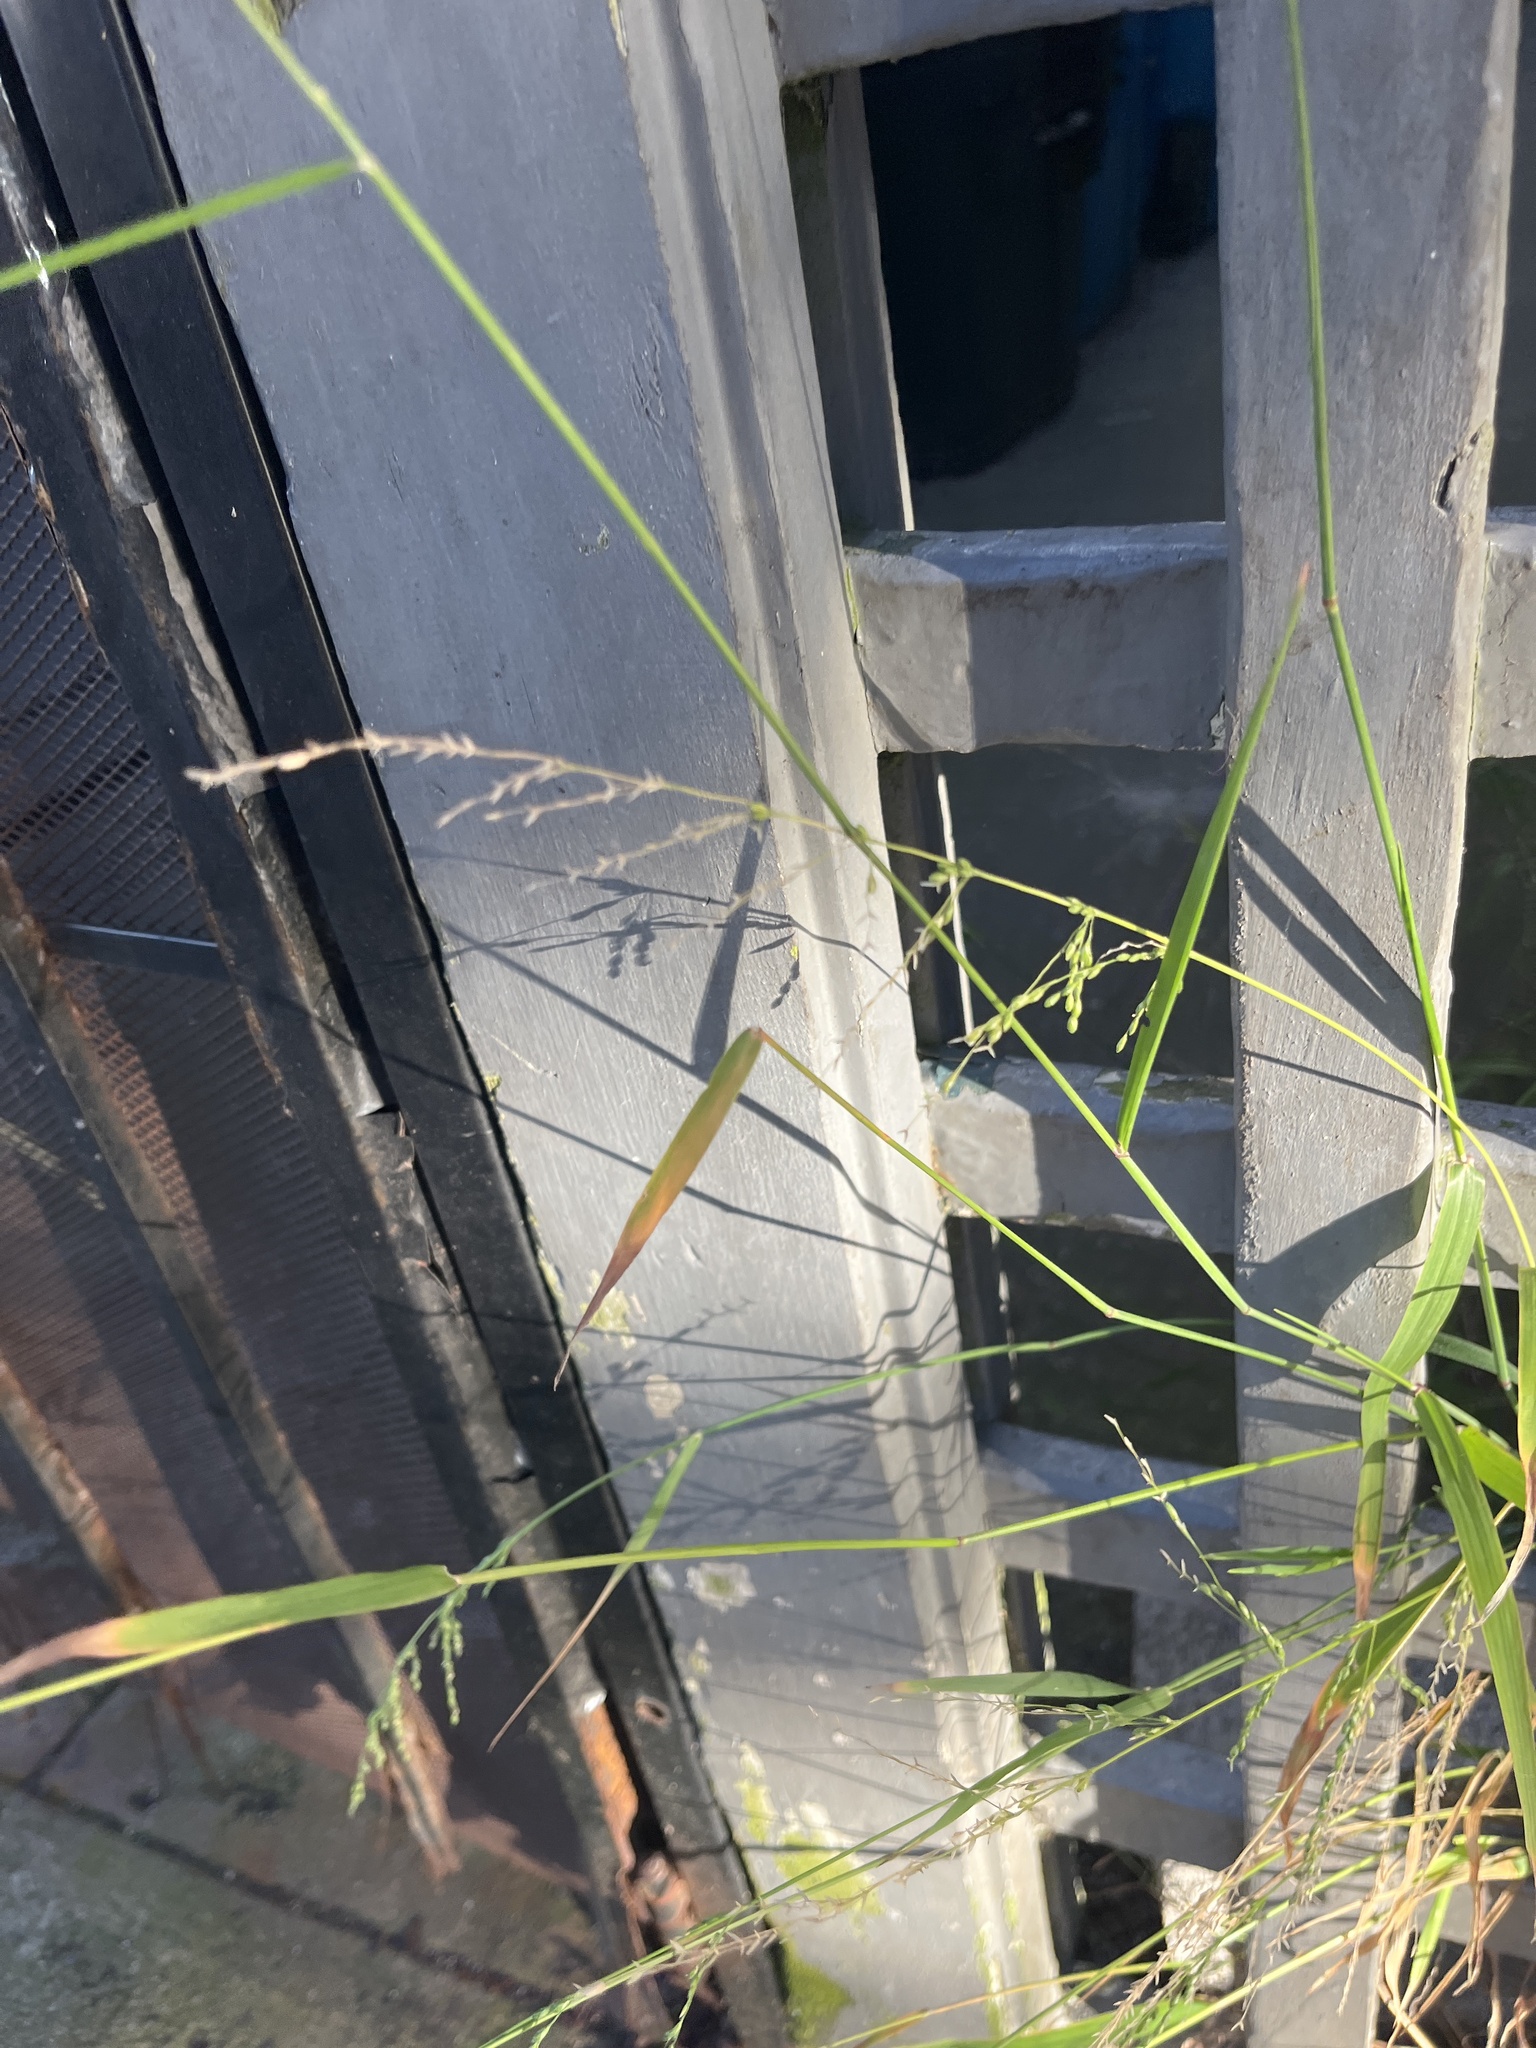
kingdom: Plantae
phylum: Tracheophyta
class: Liliopsida
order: Poales
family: Poaceae
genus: Ehrharta
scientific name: Ehrharta erecta
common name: Panic veldtgrass
